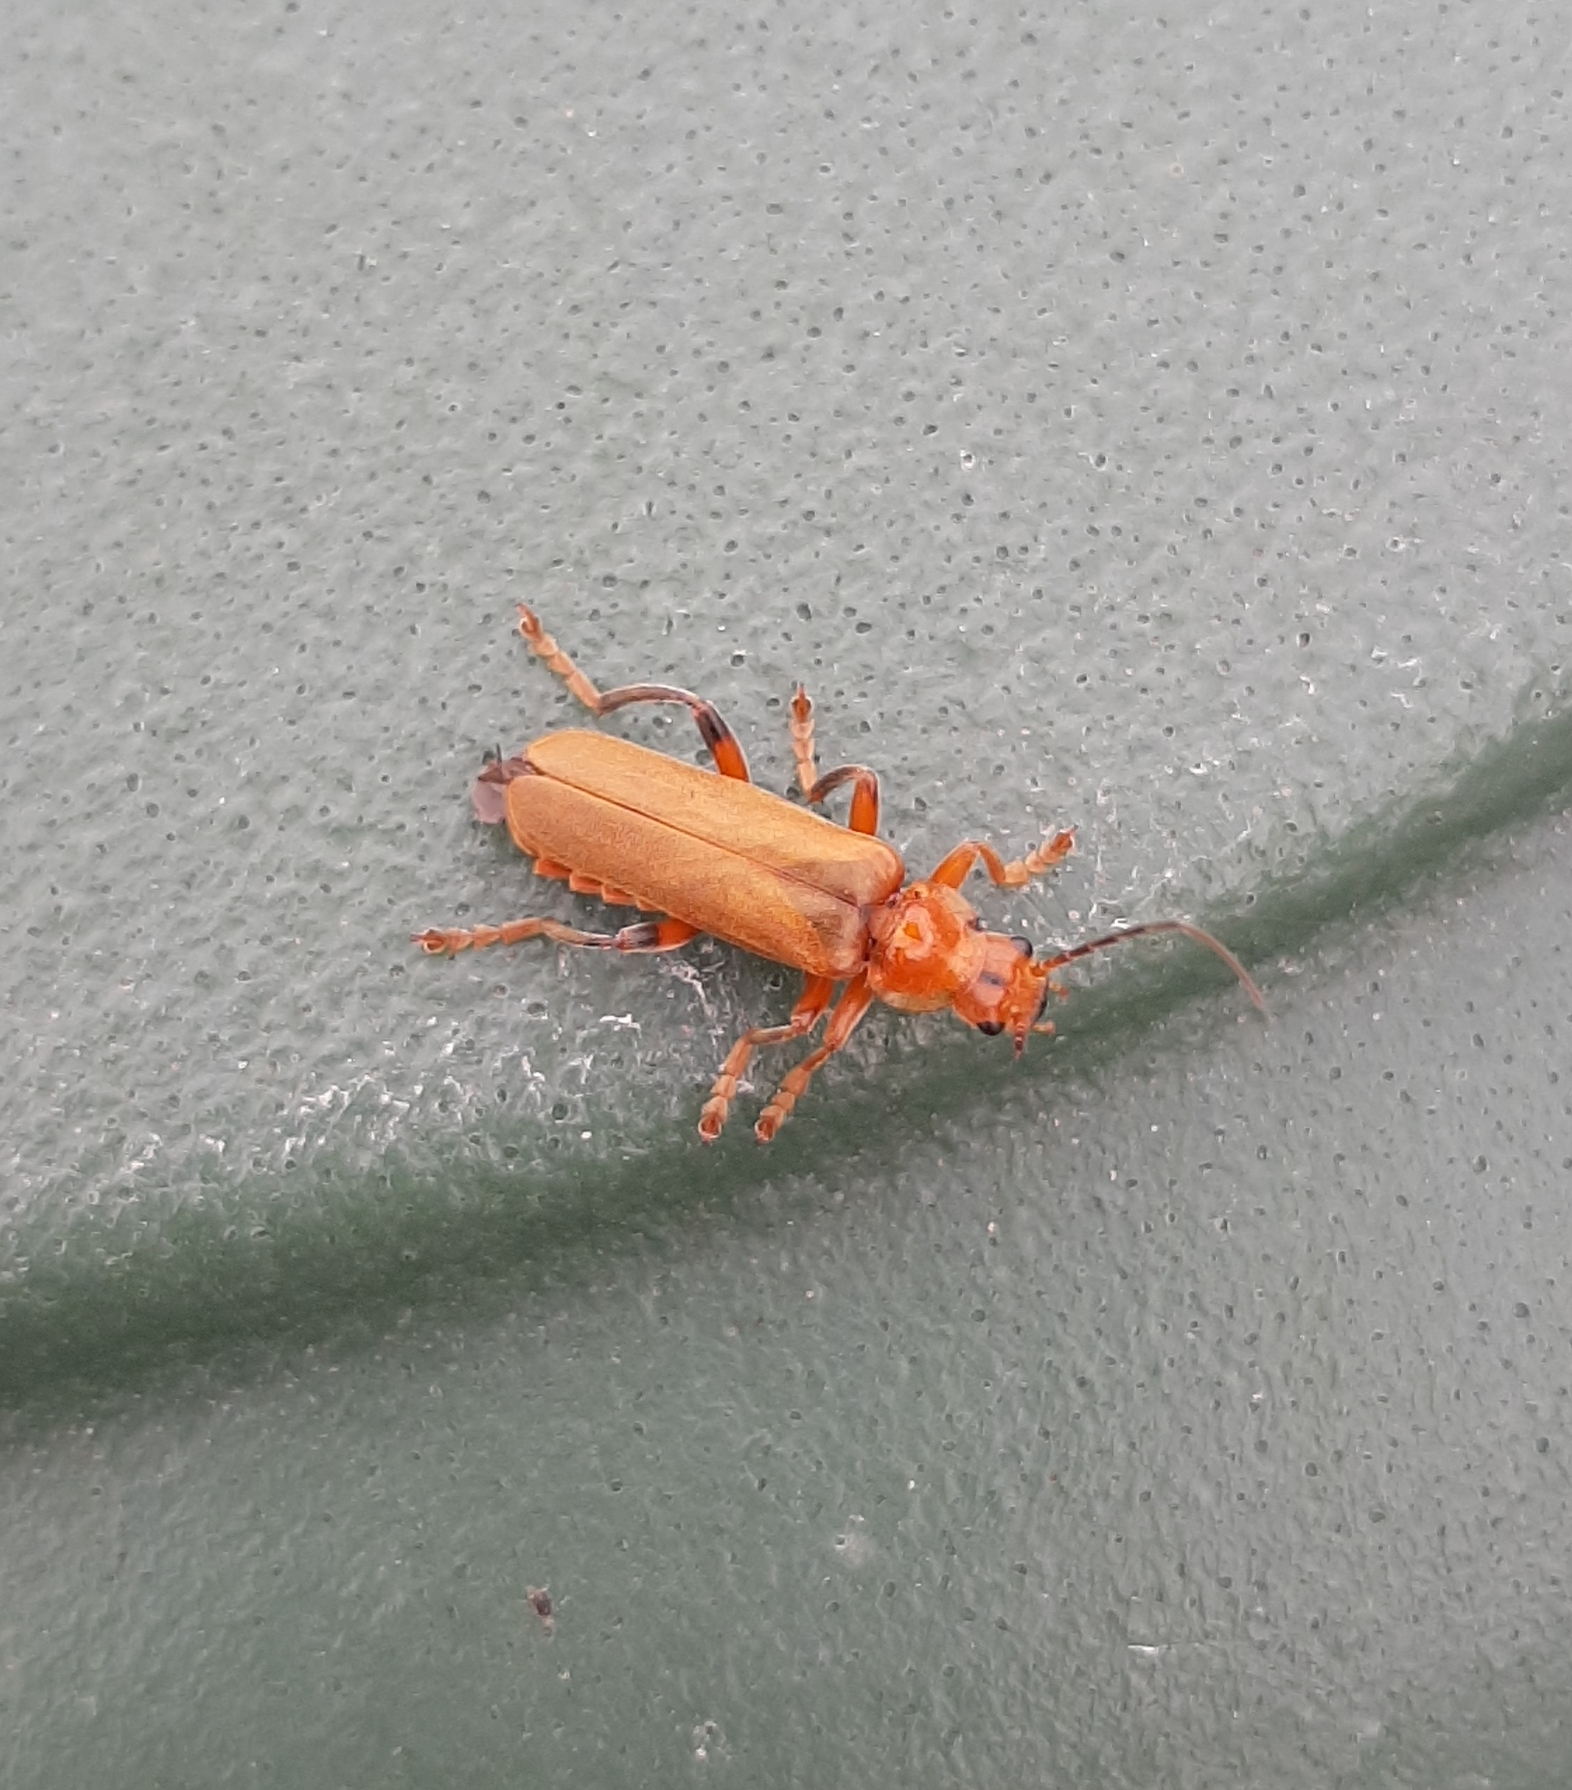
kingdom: Animalia
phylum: Arthropoda
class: Insecta
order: Coleoptera
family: Cantharidae
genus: Cantharis
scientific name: Cantharis livida
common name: Livid soldier beetle
